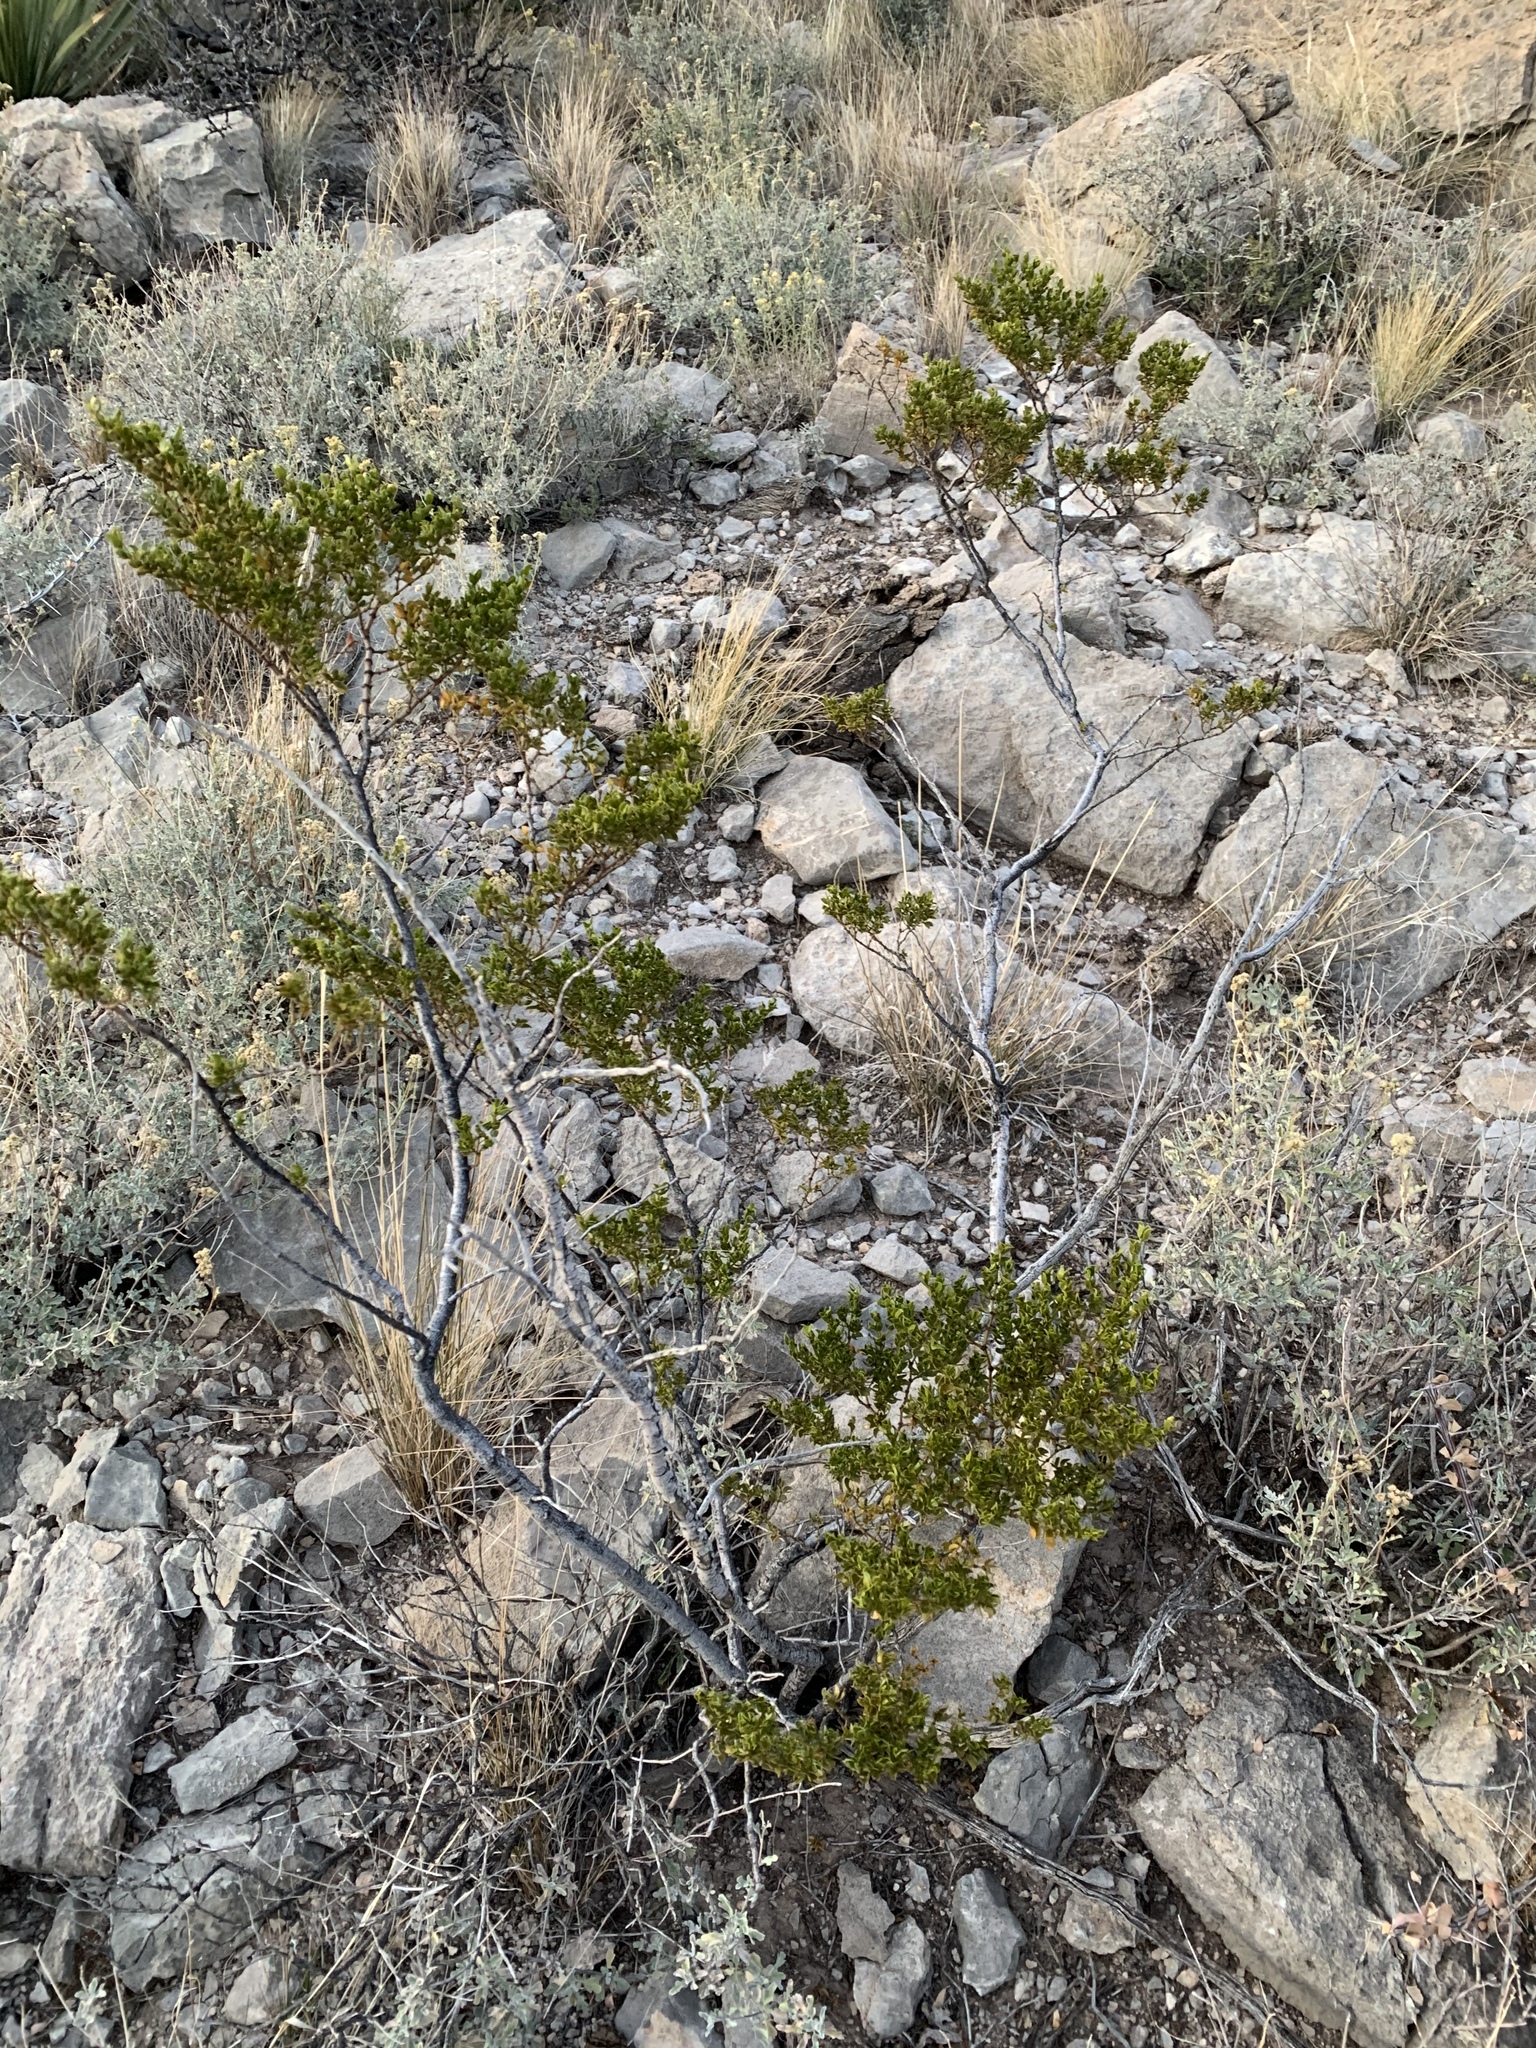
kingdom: Plantae
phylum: Tracheophyta
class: Magnoliopsida
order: Zygophyllales
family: Zygophyllaceae
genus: Larrea
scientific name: Larrea tridentata
